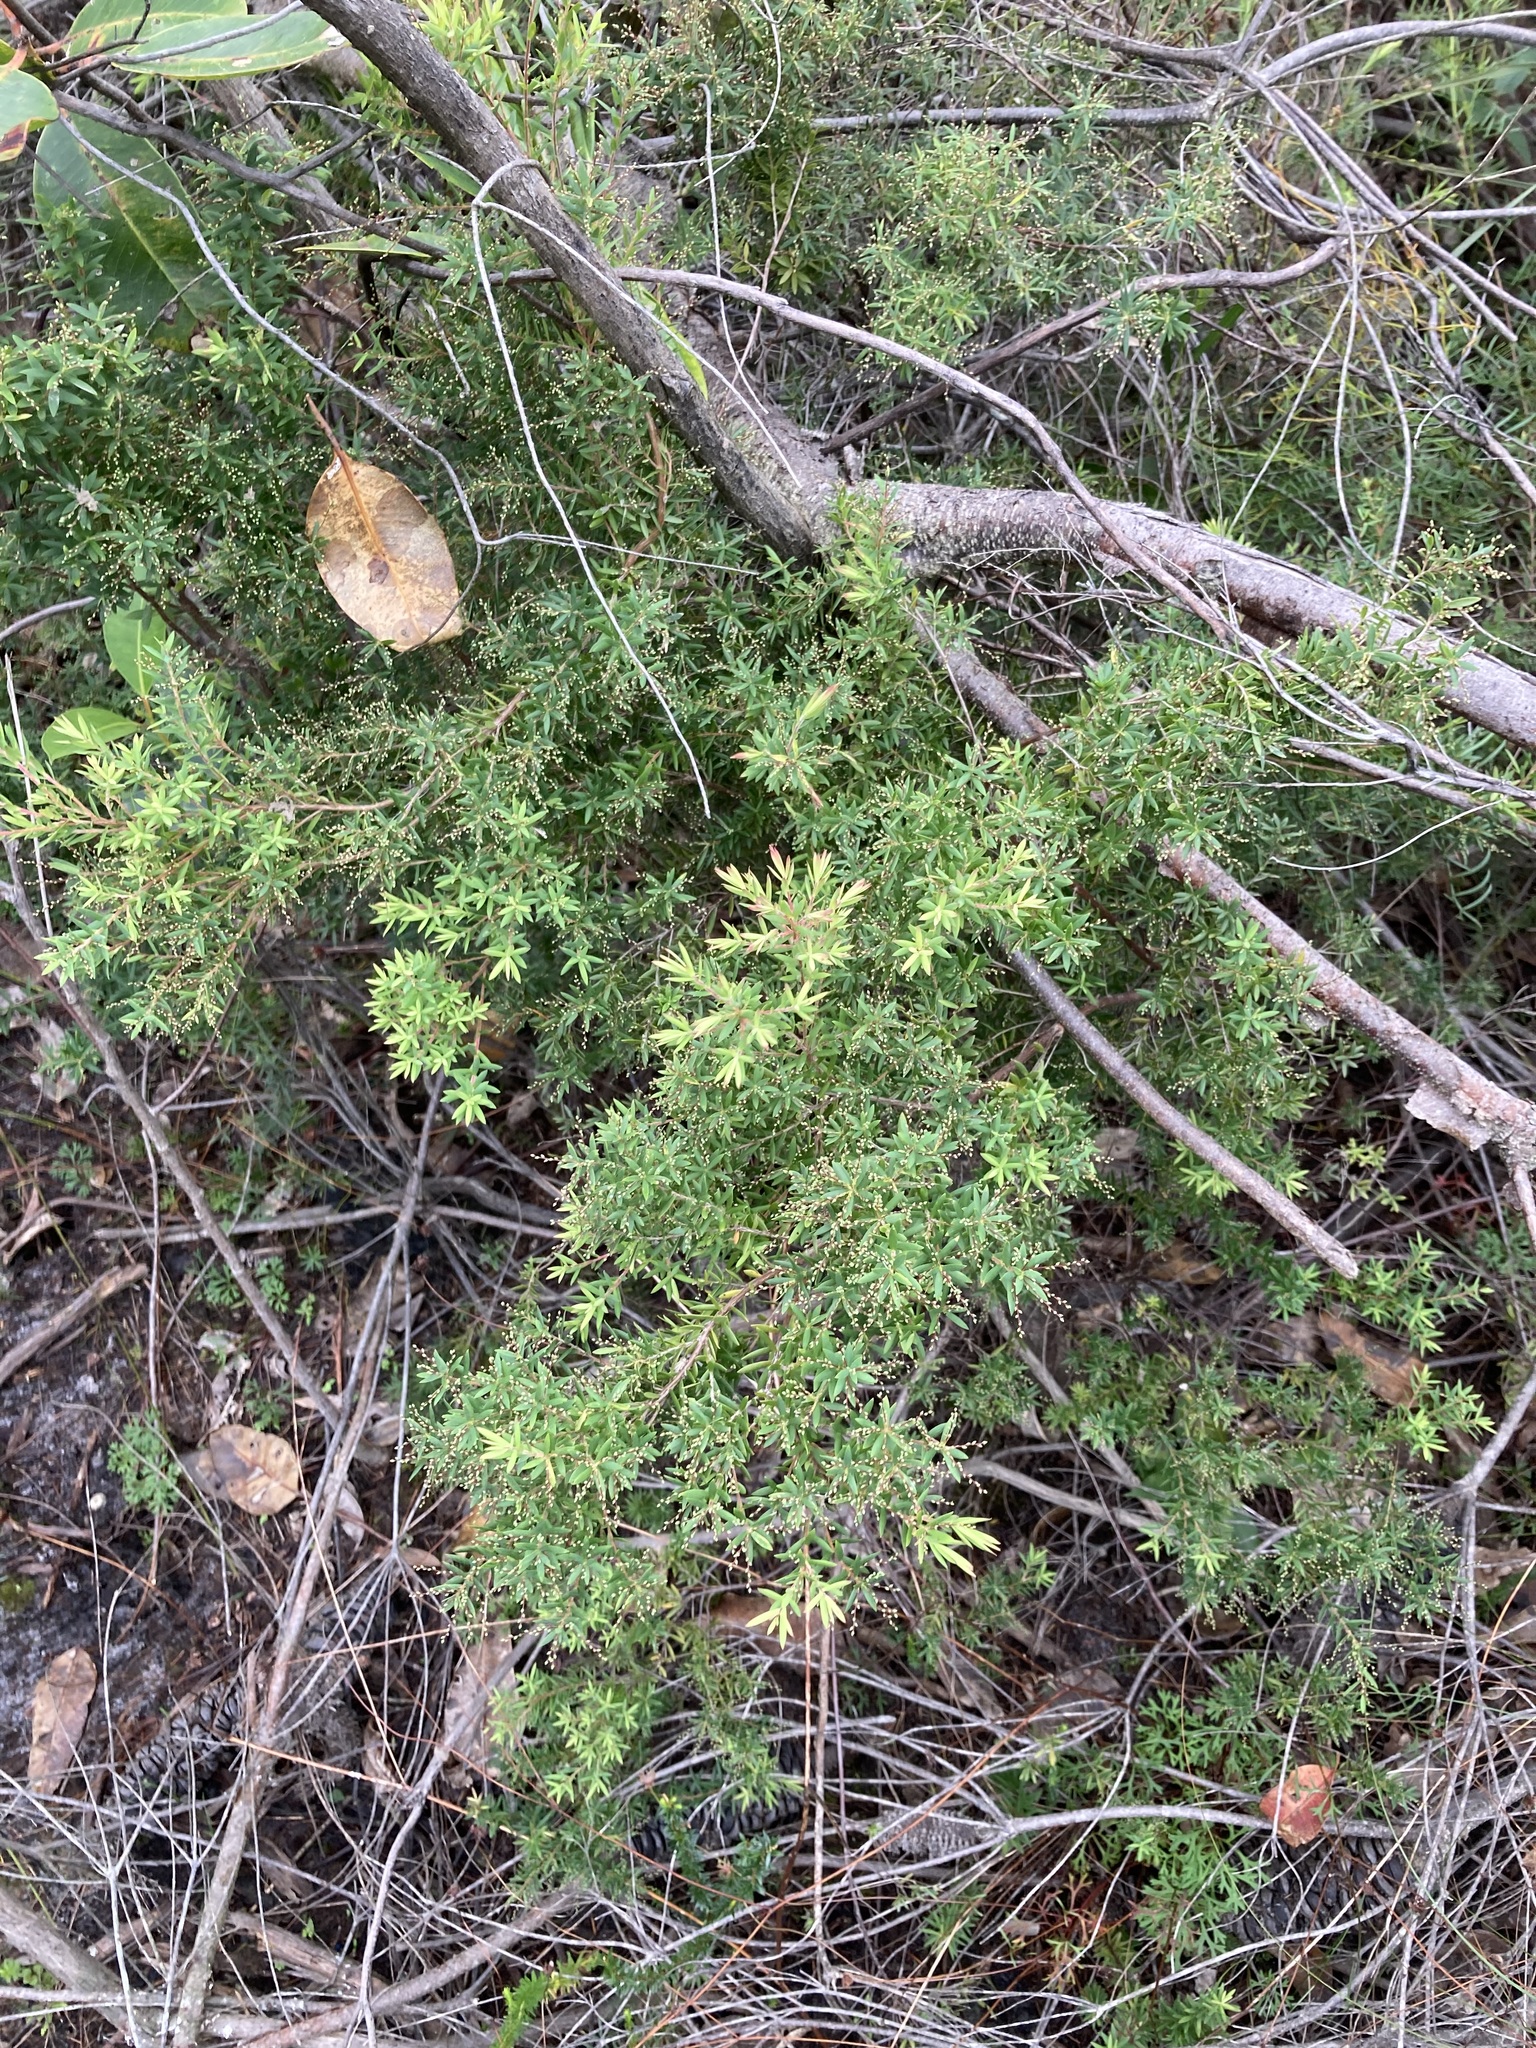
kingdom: Plantae
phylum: Tracheophyta
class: Magnoliopsida
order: Ericales
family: Ericaceae
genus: Leucopogon
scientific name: Leucopogon lanceolatus
